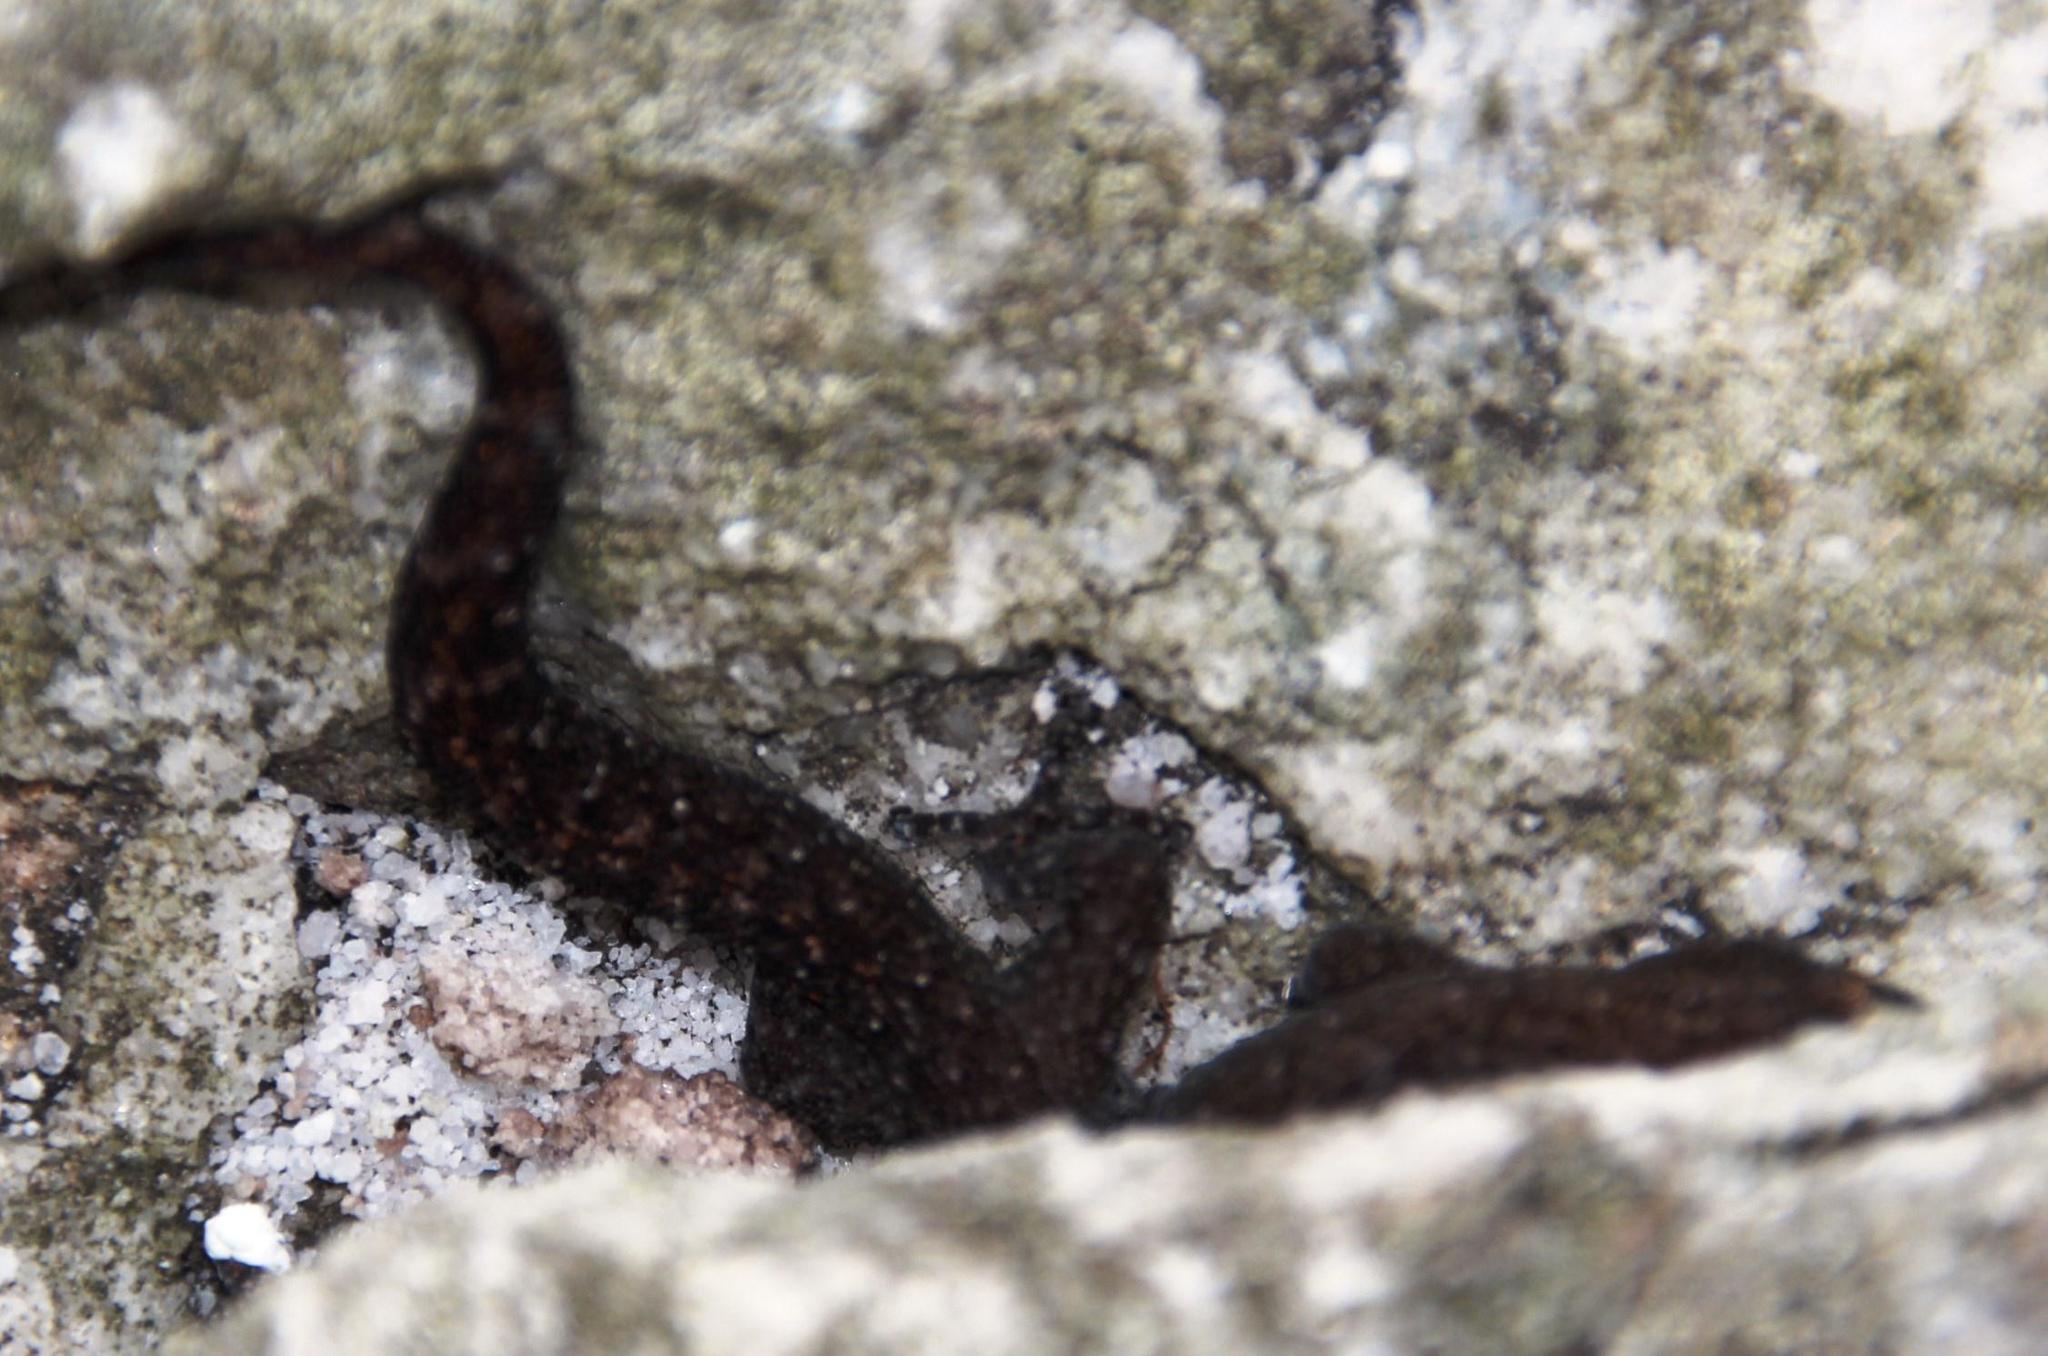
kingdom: Animalia
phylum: Chordata
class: Squamata
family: Gekkonidae
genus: Afrogecko
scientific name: Afrogecko porphyreus
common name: Marbled leaf-toed gecko
